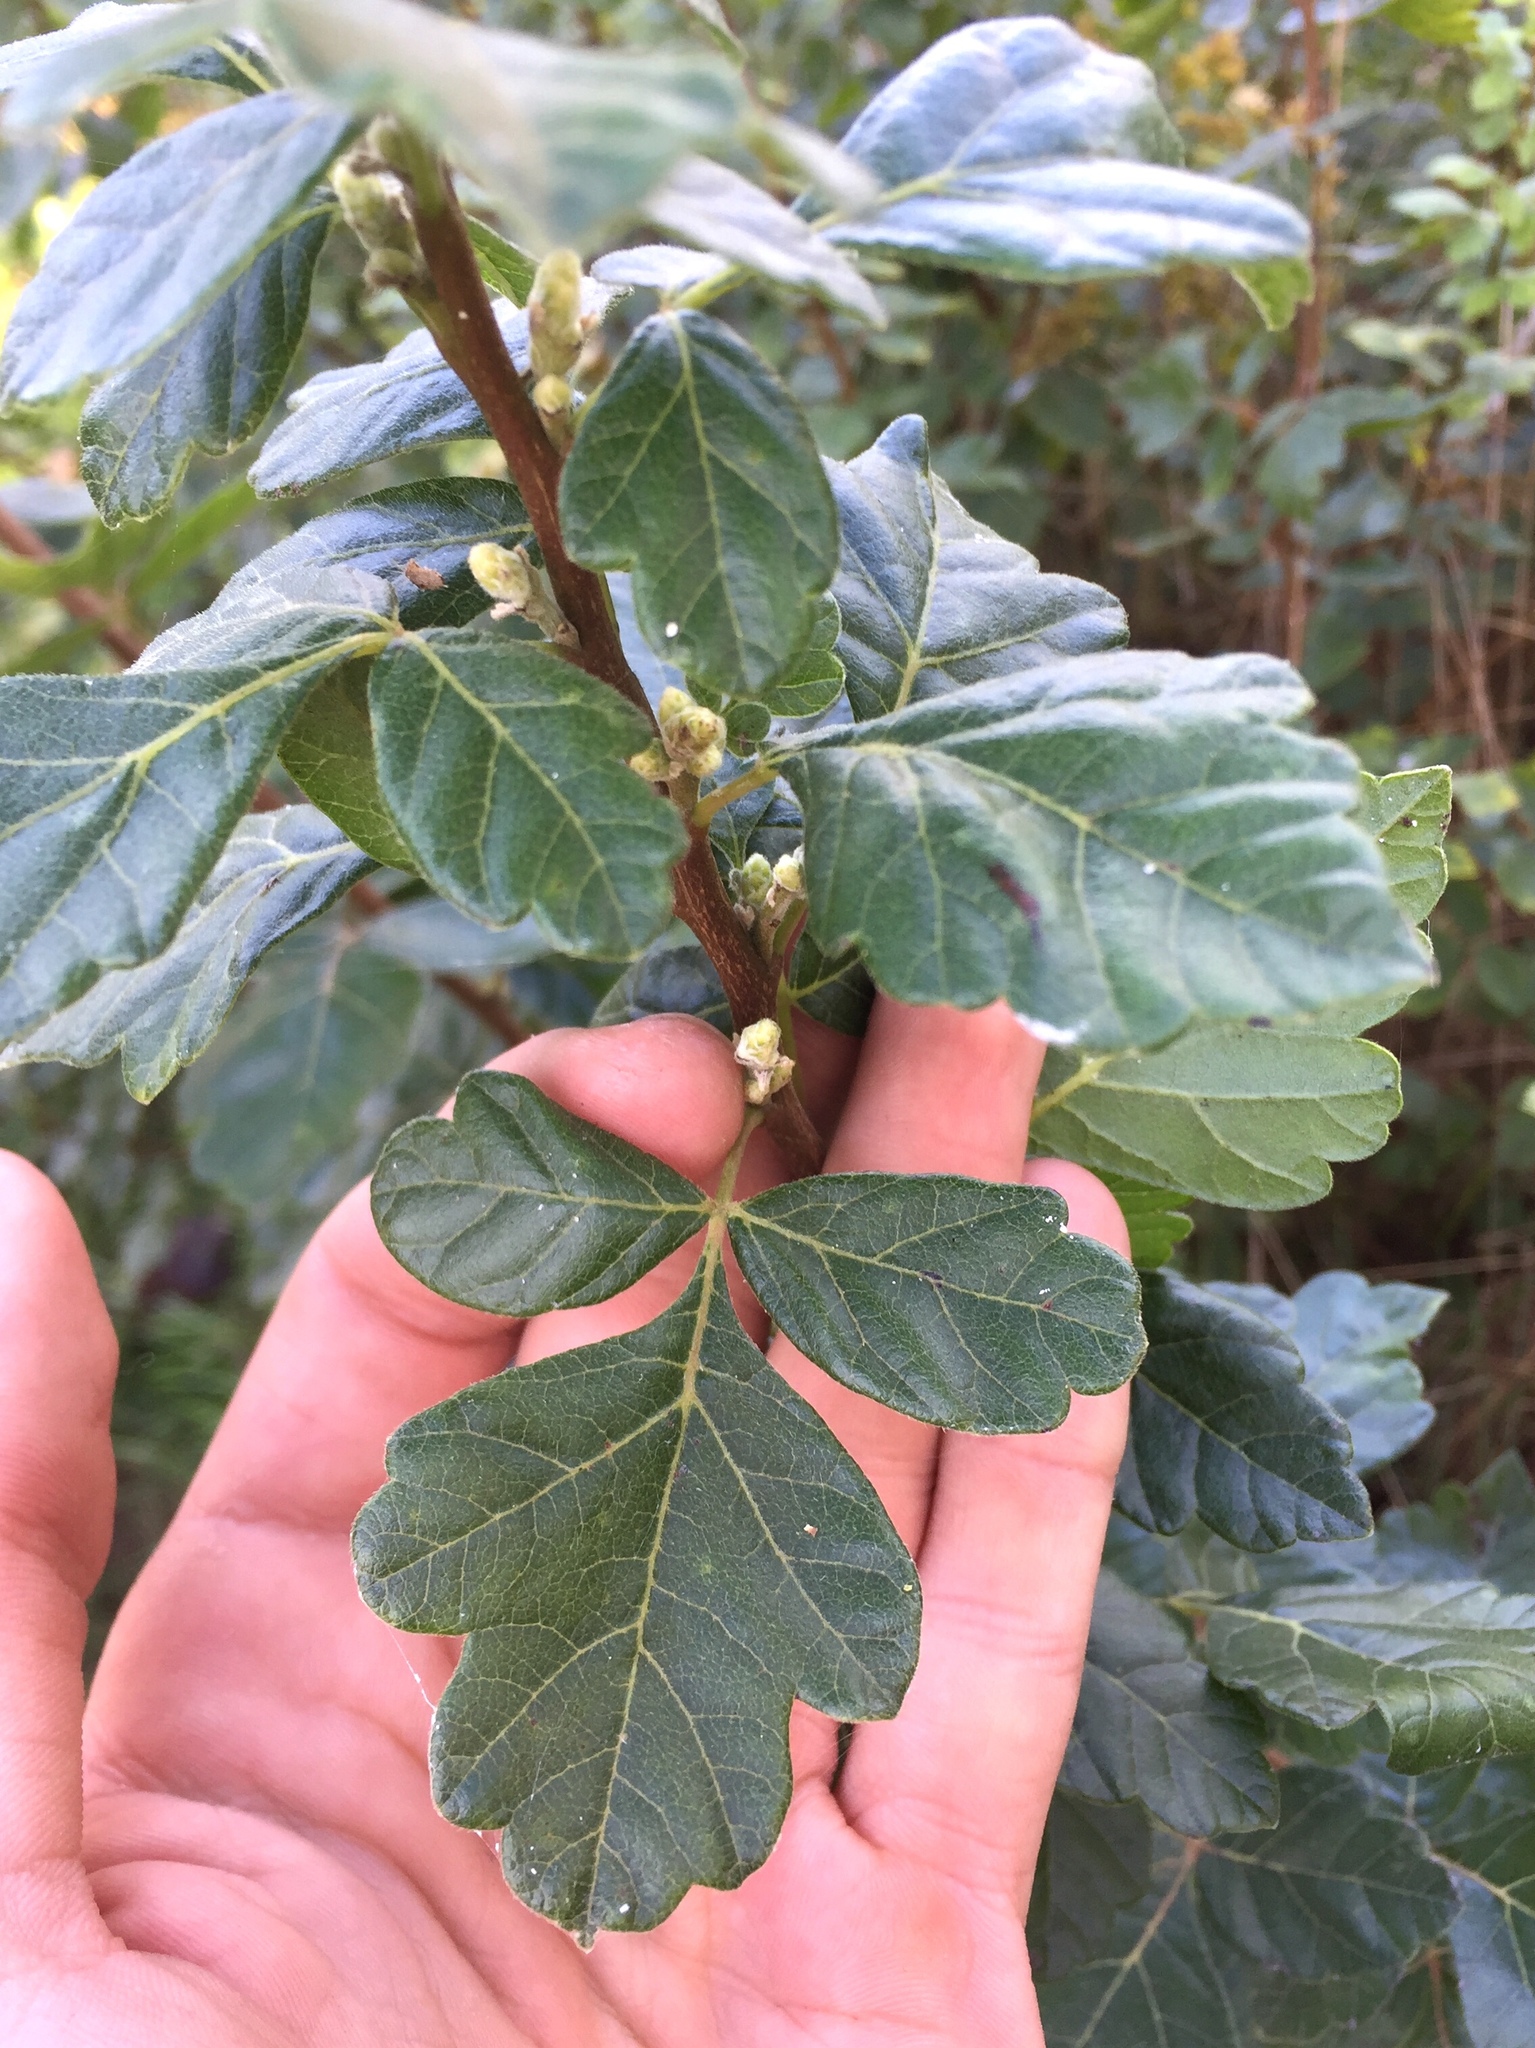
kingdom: Plantae
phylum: Tracheophyta
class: Magnoliopsida
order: Sapindales
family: Anacardiaceae
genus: Rhus
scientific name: Rhus aromatica
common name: Aromatic sumac
